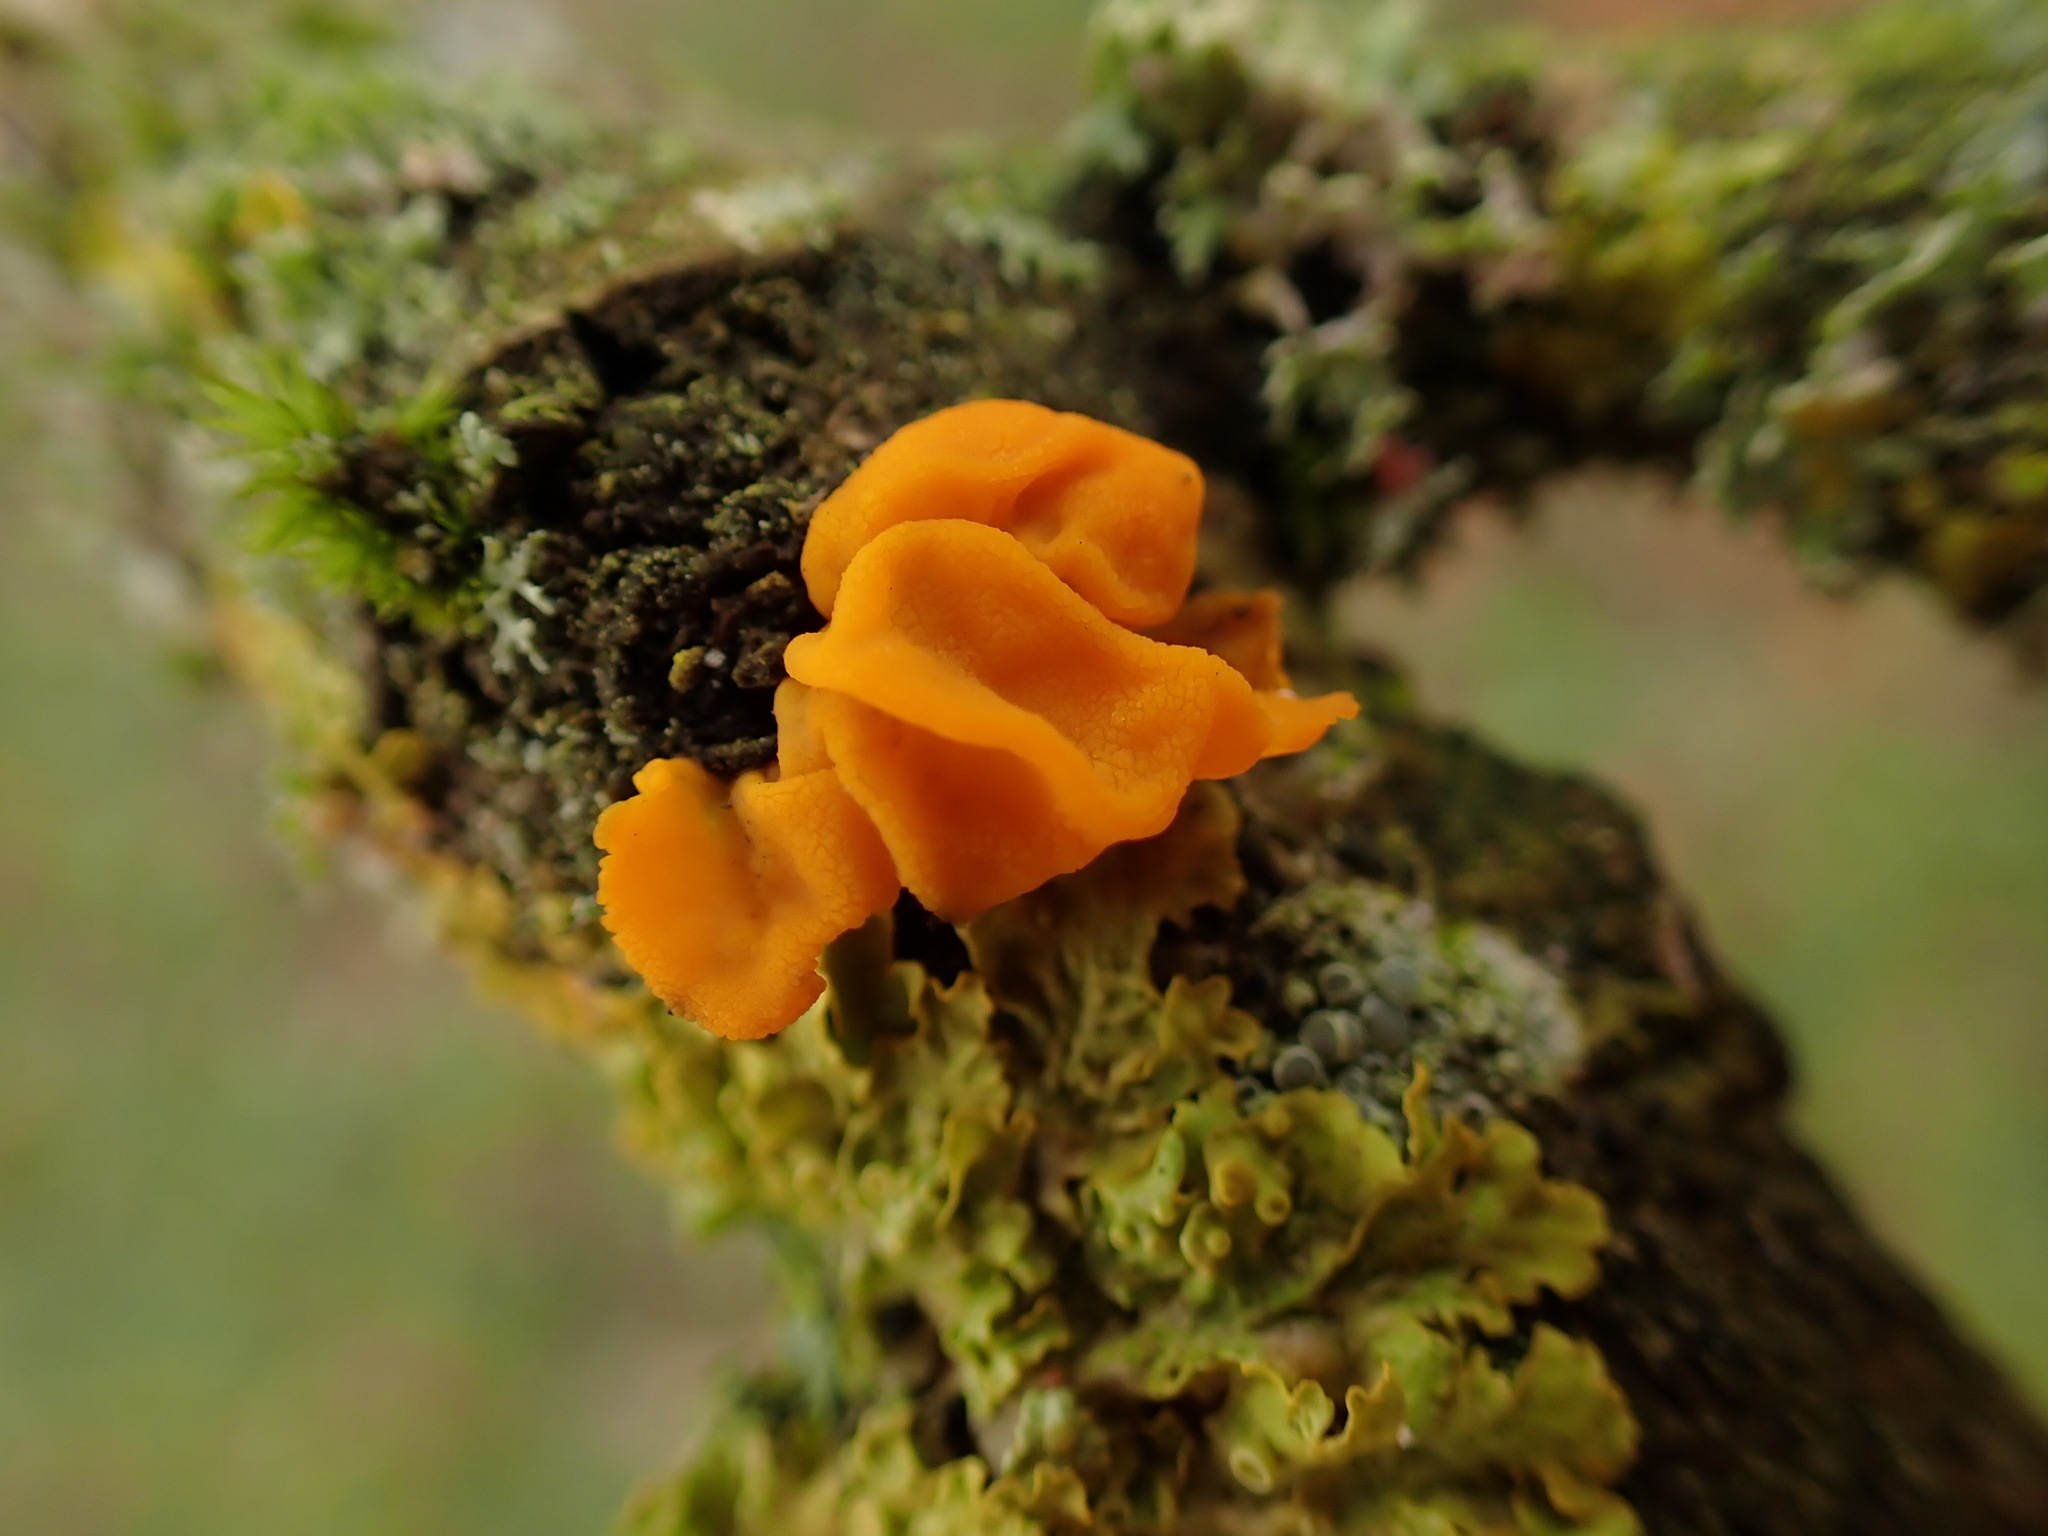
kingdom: Fungi
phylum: Basidiomycota
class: Tremellomycetes
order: Tremellales
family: Tremellaceae
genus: Tremella
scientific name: Tremella mesenterica
